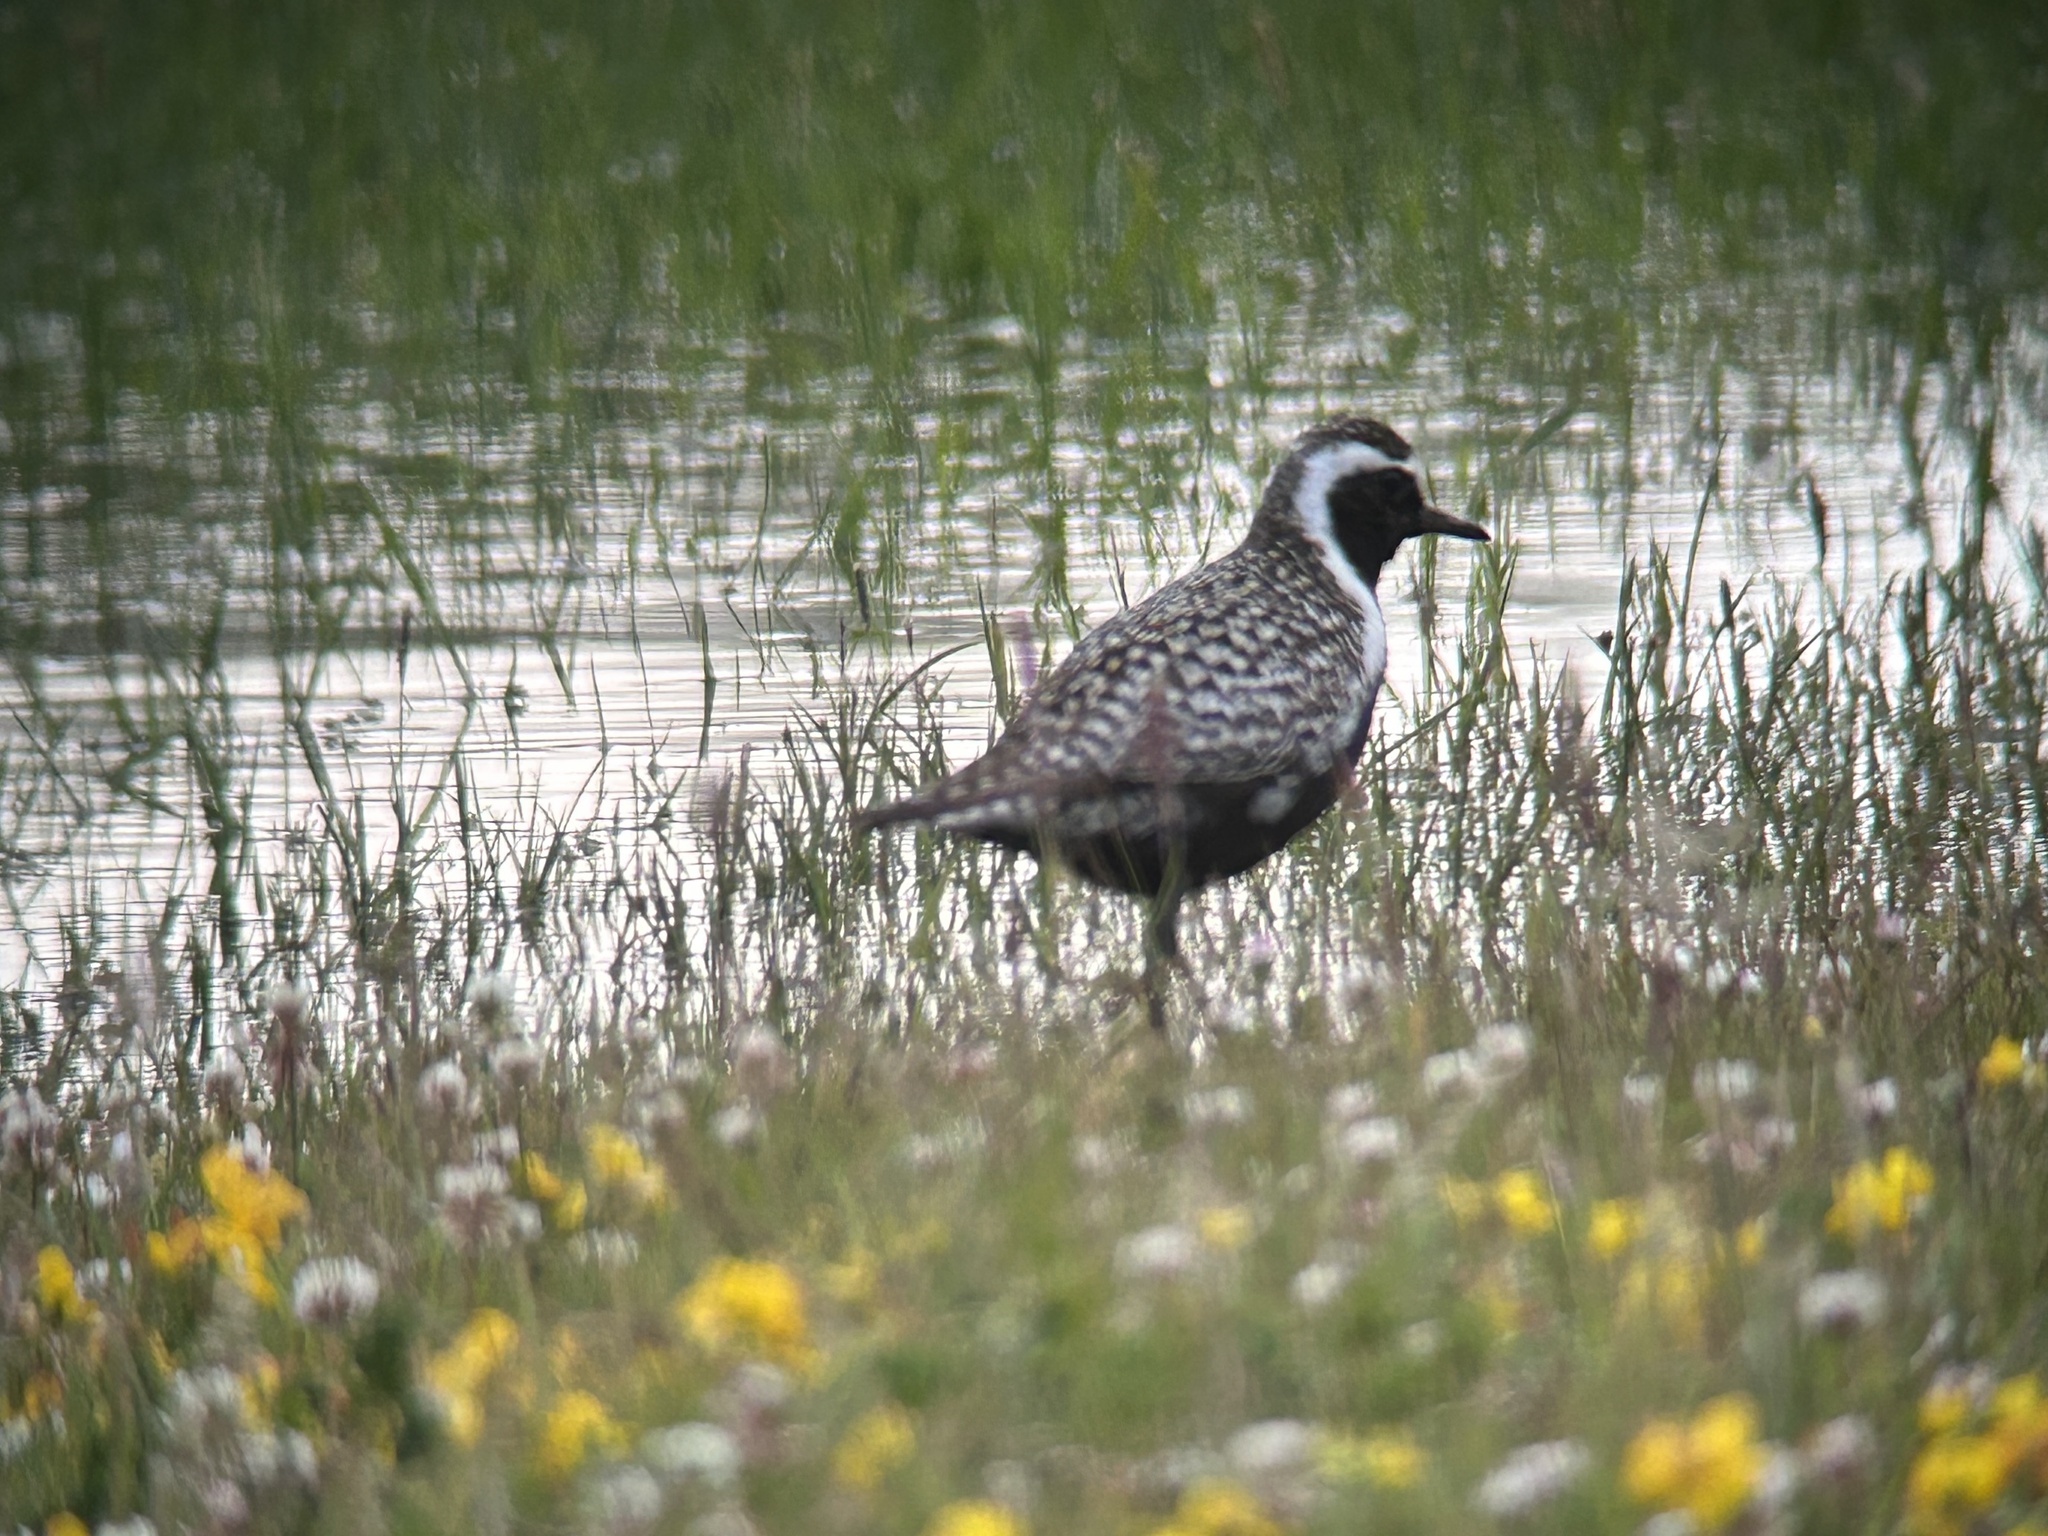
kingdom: Animalia
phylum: Chordata
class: Aves
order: Charadriiformes
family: Charadriidae
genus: Pluvialis
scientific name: Pluvialis fulva
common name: Pacific golden plover
